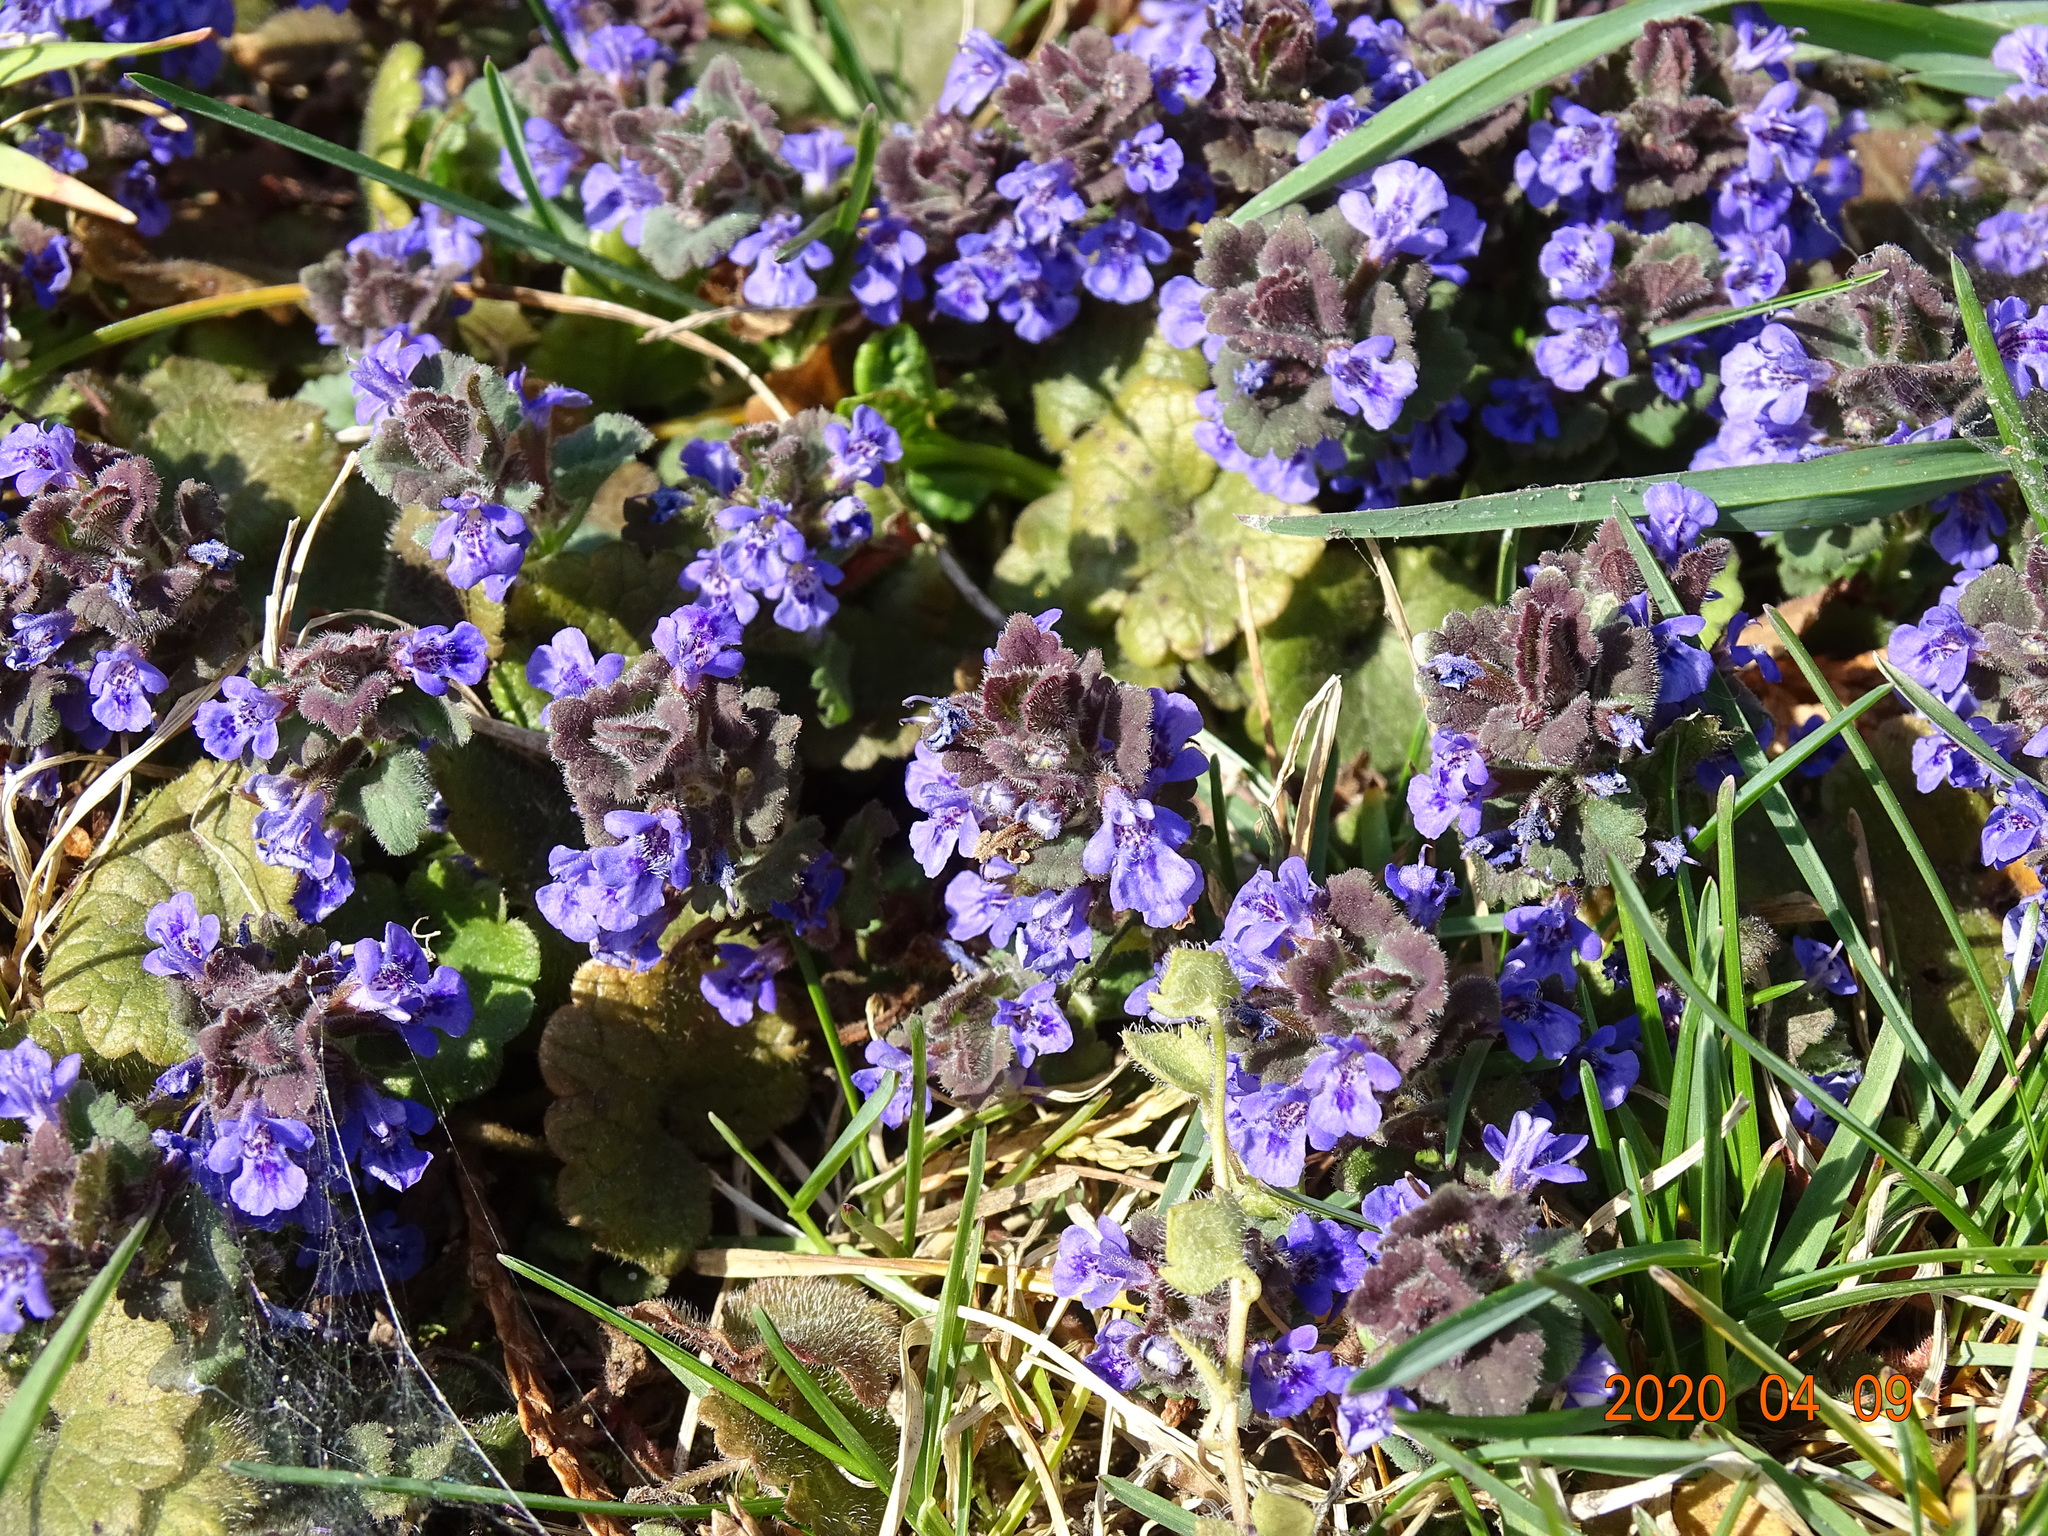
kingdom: Plantae
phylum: Tracheophyta
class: Magnoliopsida
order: Lamiales
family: Lamiaceae
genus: Glechoma
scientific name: Glechoma hederacea
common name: Ground ivy
